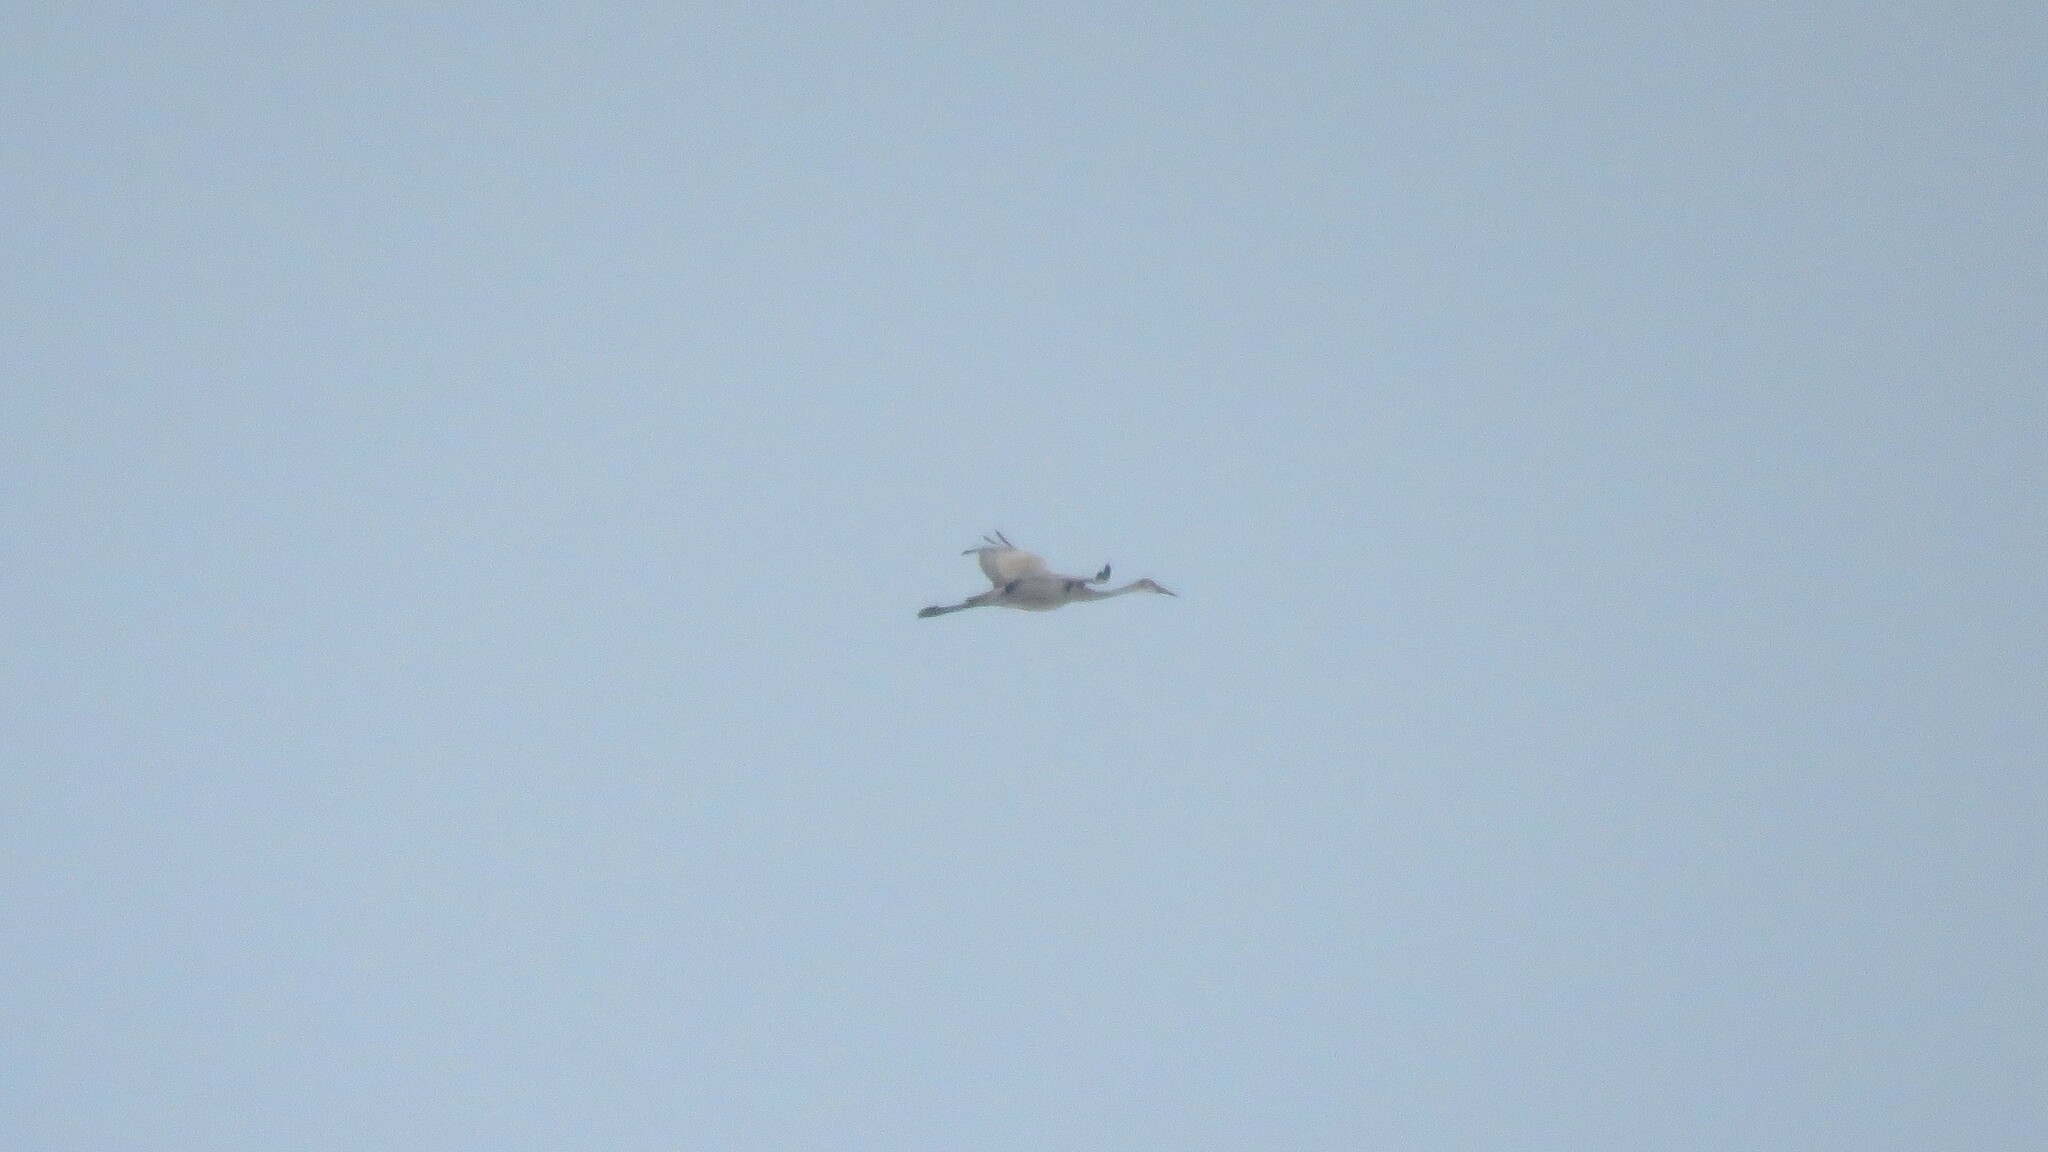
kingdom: Animalia
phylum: Chordata
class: Aves
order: Gruiformes
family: Gruidae
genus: Grus
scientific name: Grus canadensis
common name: Sandhill crane
